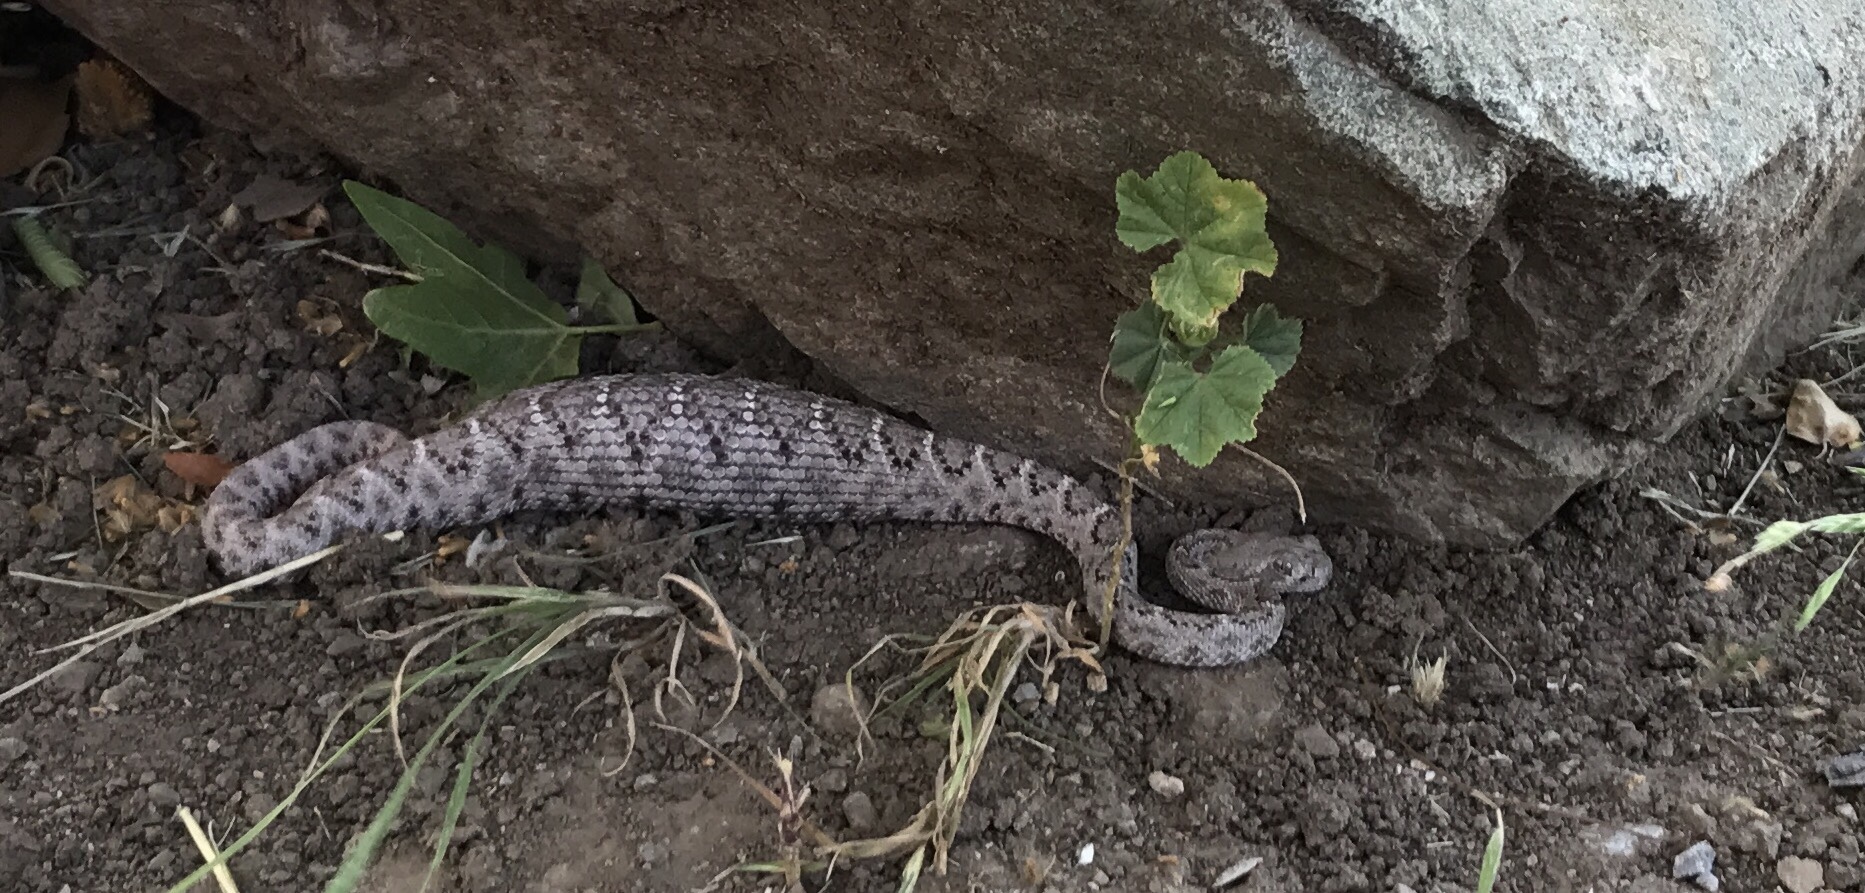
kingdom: Animalia
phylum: Chordata
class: Squamata
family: Viperidae
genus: Crotalus
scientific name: Crotalus atrox
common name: Western diamond-backed rattlesnake
